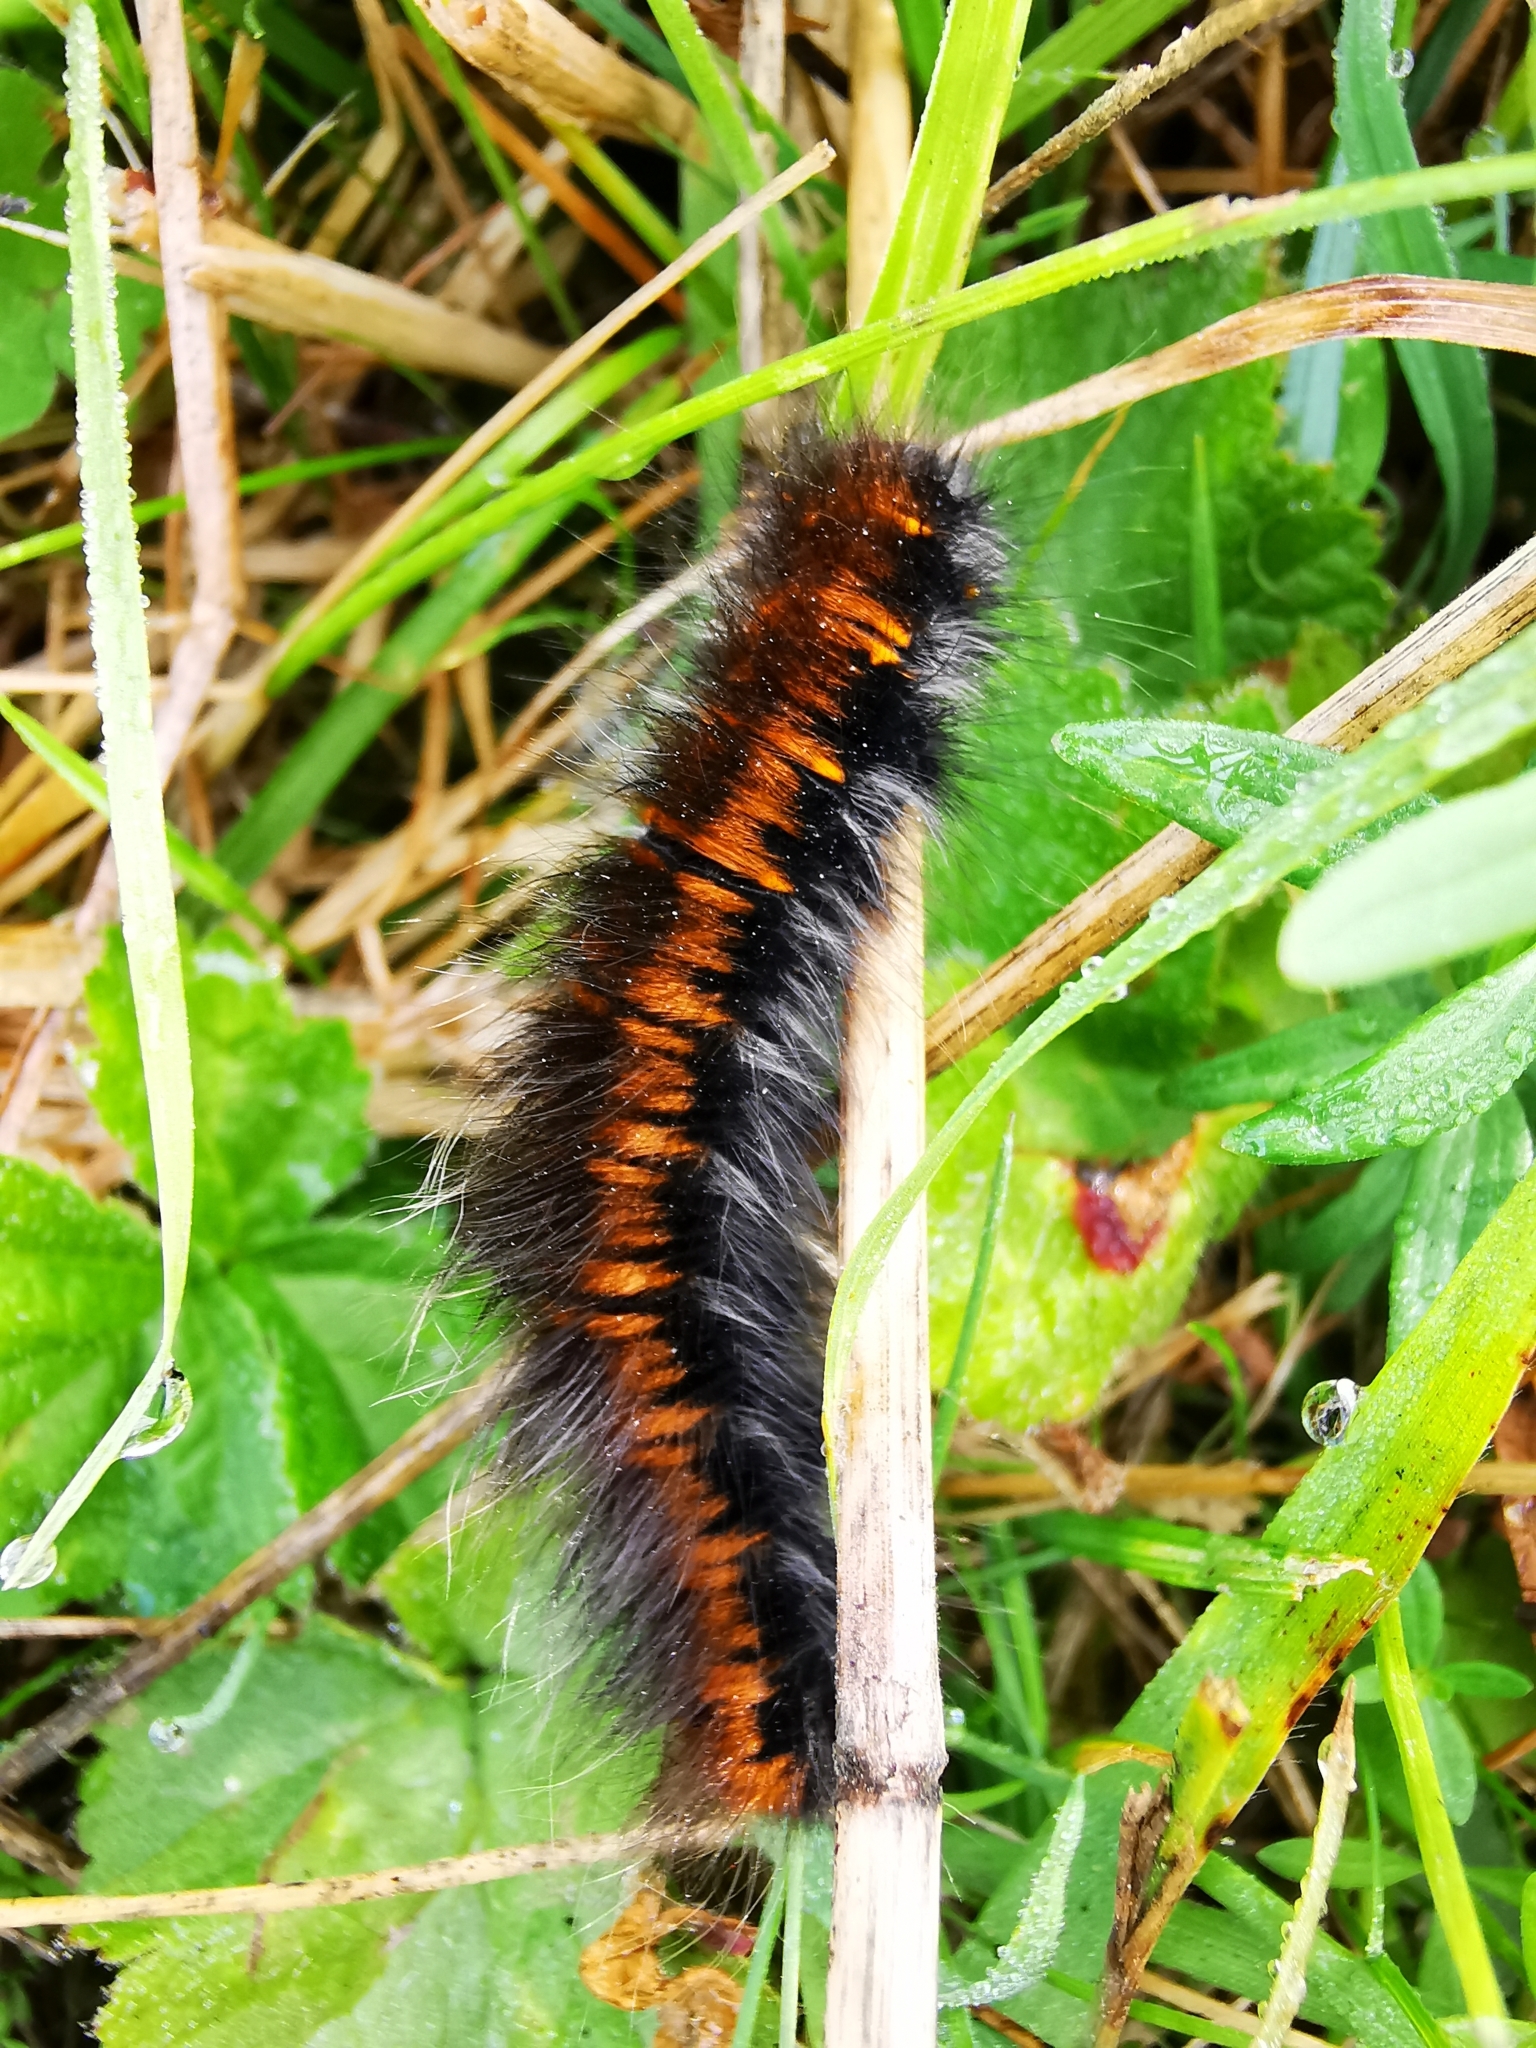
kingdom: Animalia
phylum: Arthropoda
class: Insecta
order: Lepidoptera
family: Lasiocampidae
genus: Macrothylacia
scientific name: Macrothylacia rubi
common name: Fox moth
